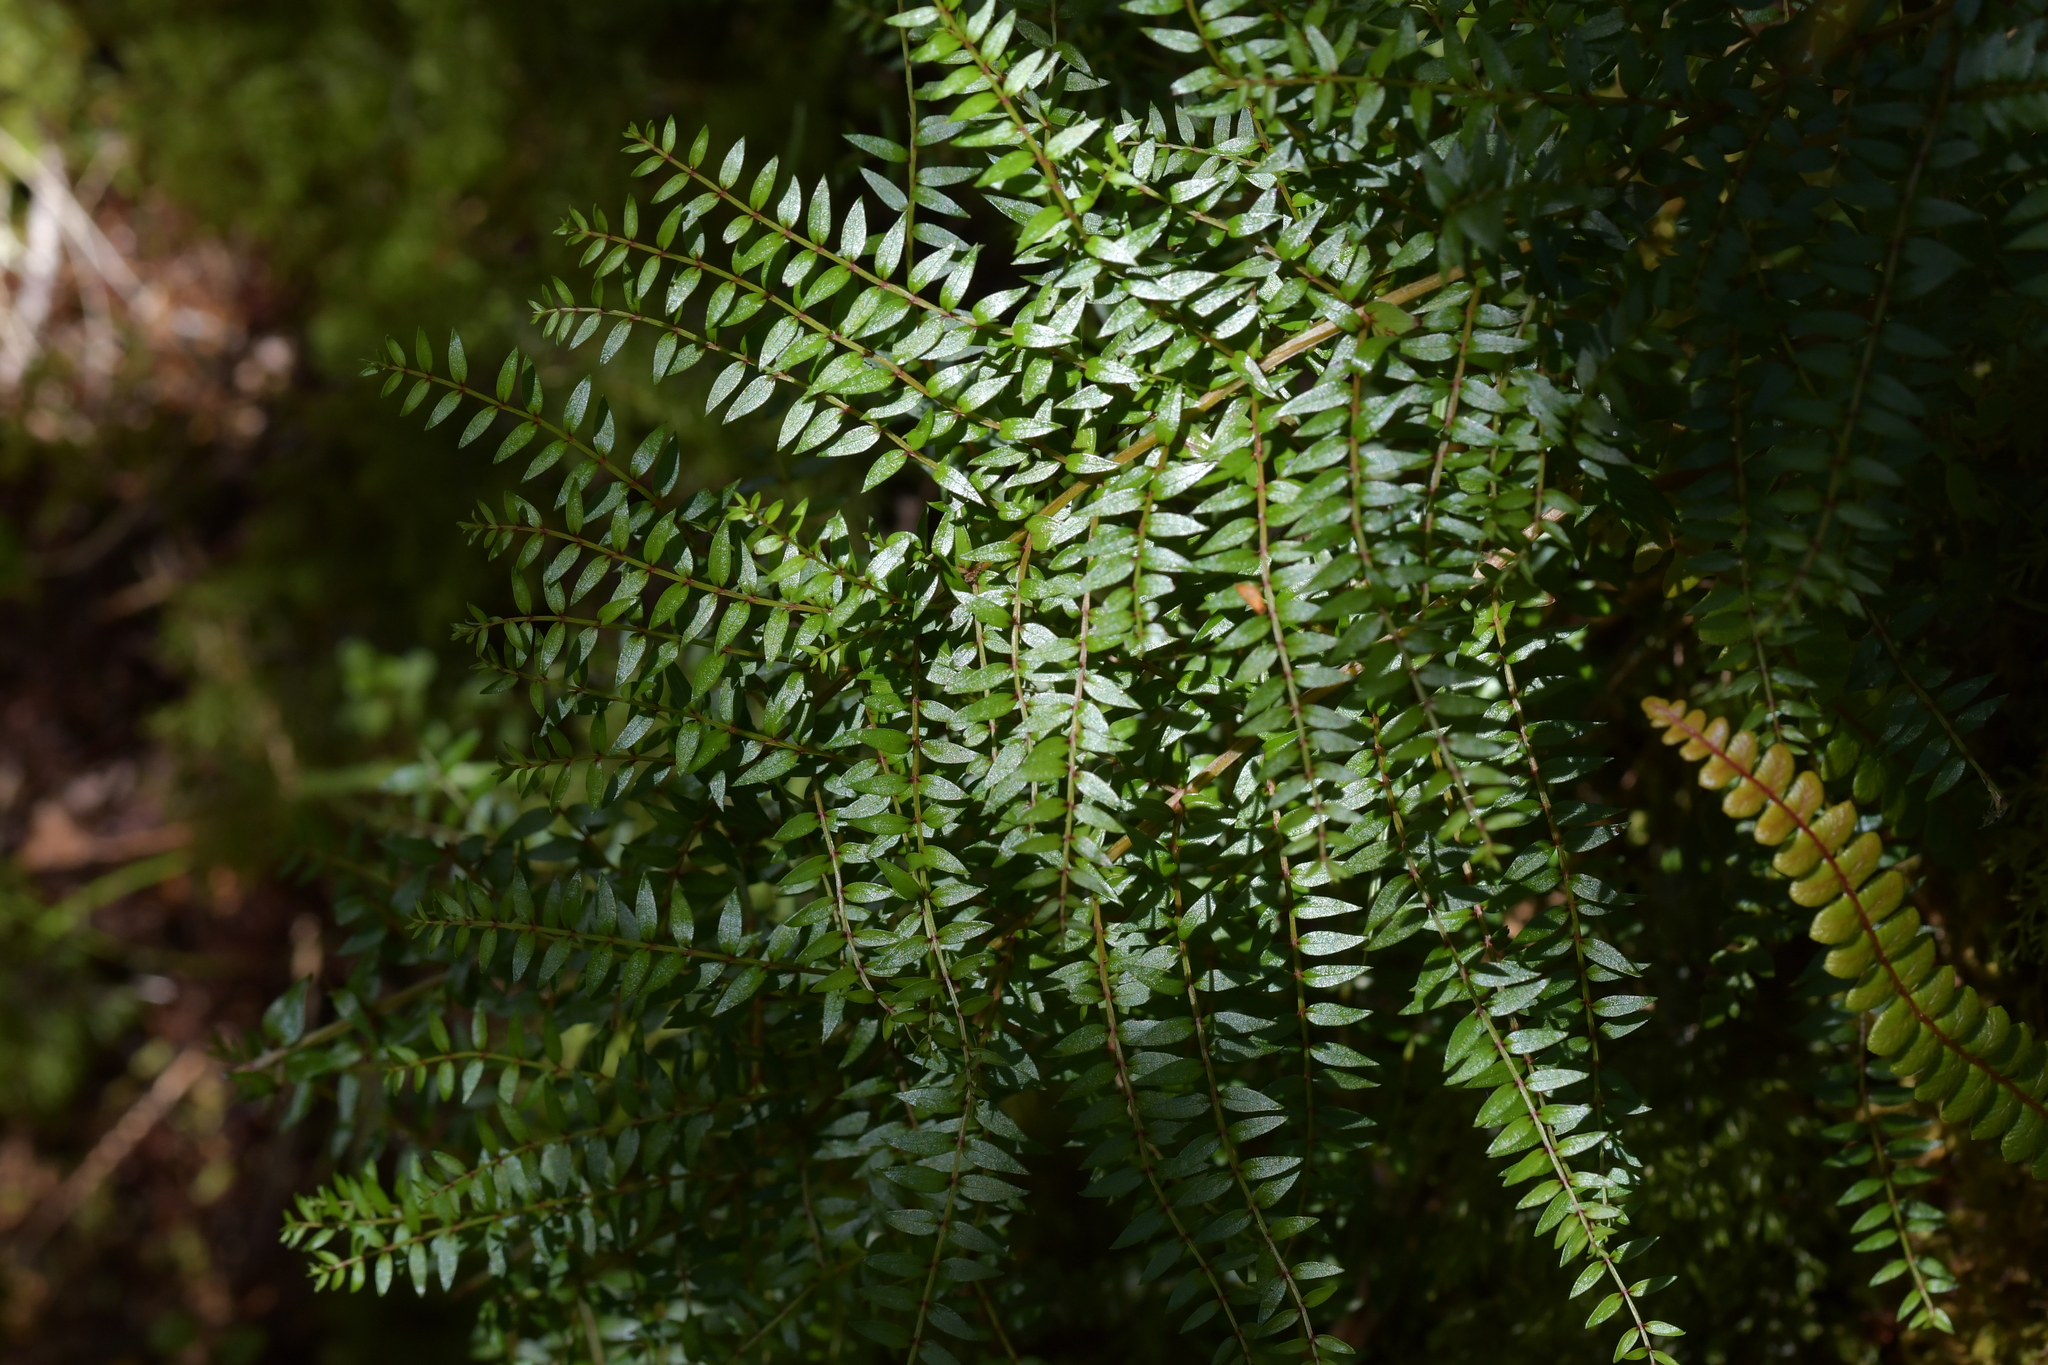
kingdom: Plantae
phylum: Tracheophyta
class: Magnoliopsida
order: Cucurbitales
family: Coriariaceae
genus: Coriaria
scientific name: Coriaria plumosa
